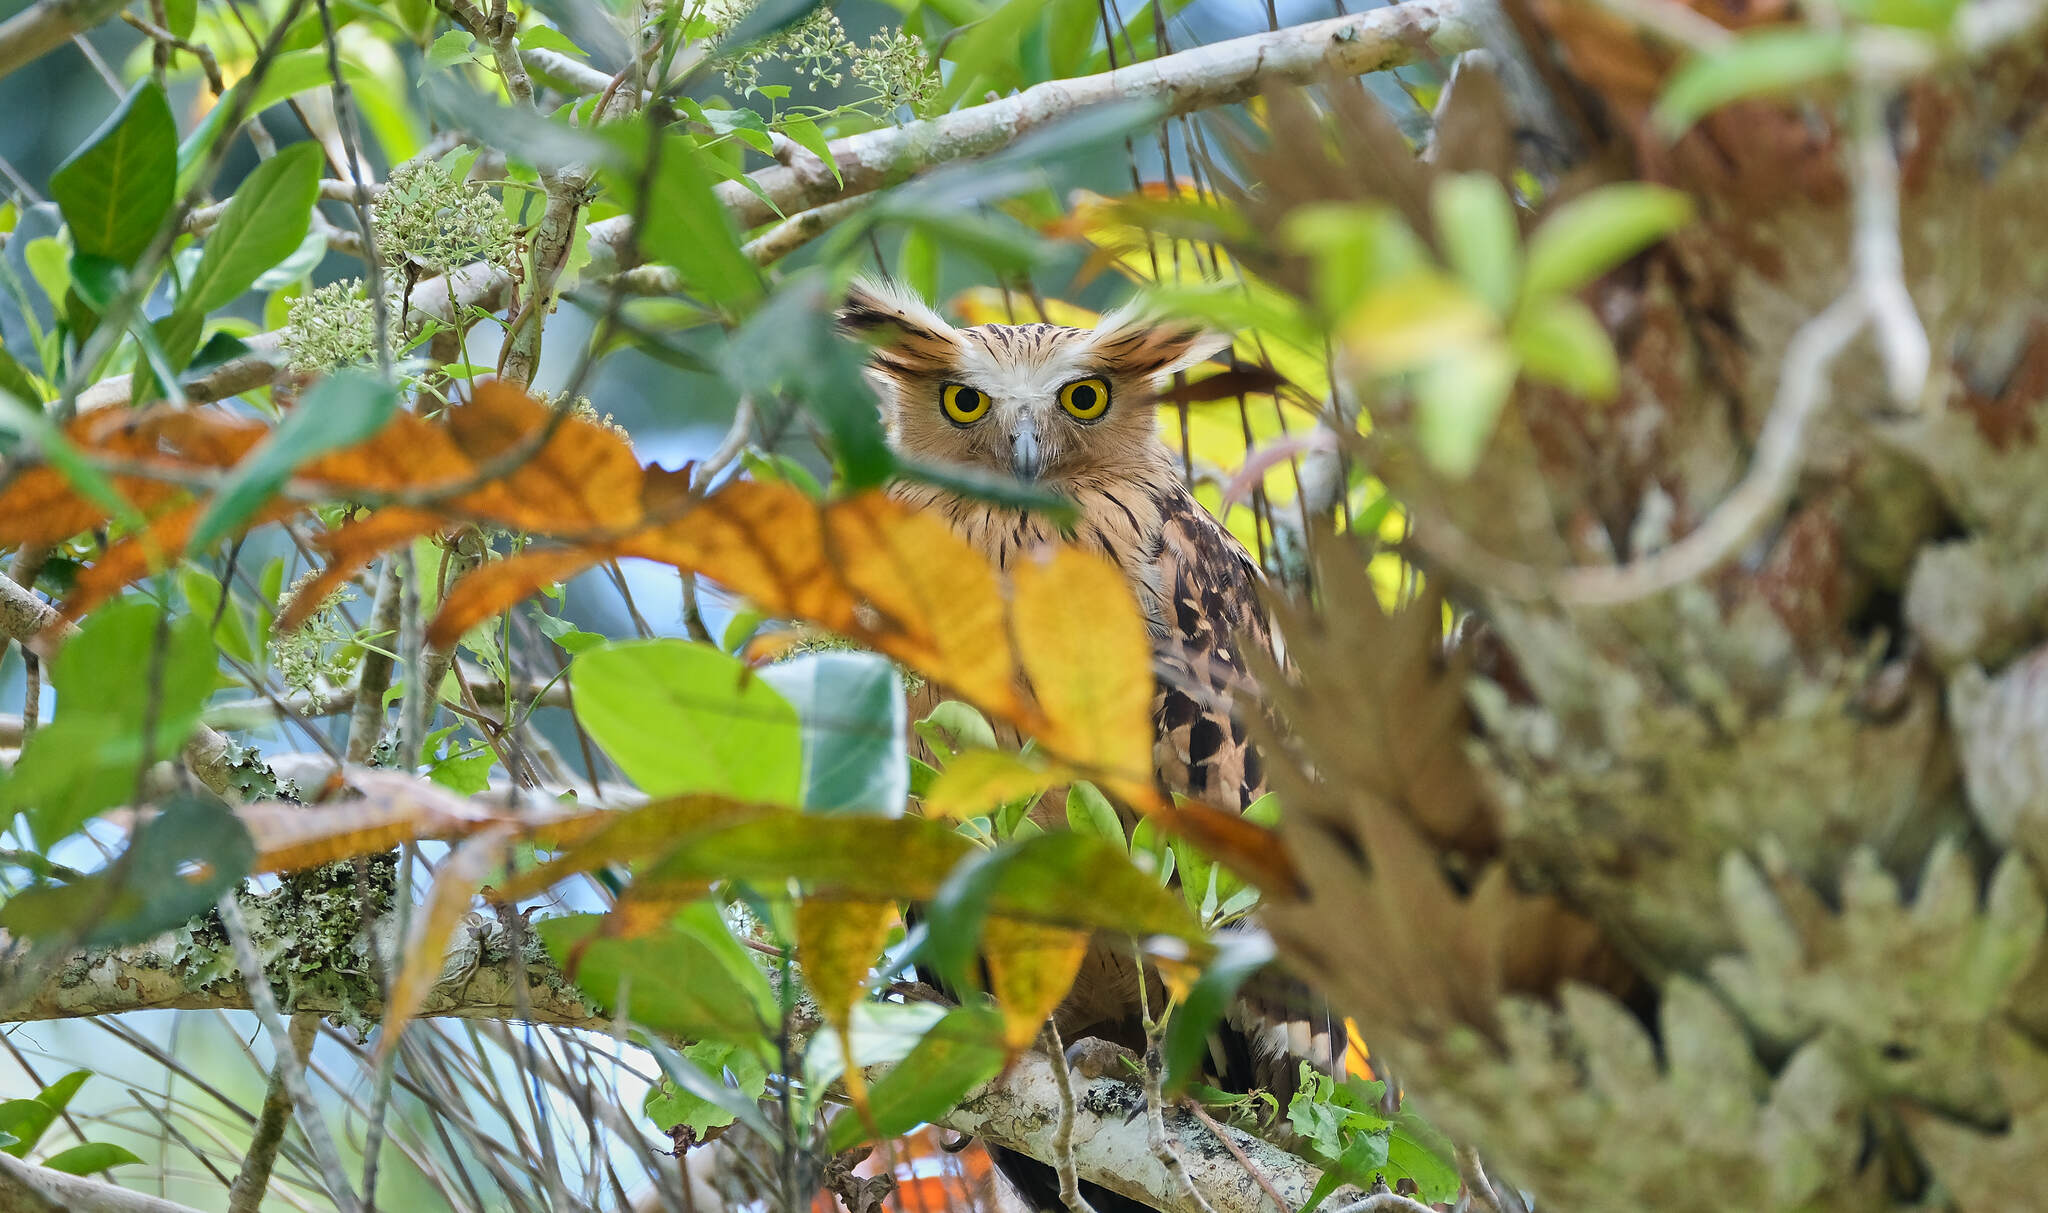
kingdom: Animalia
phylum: Chordata
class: Aves
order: Strigiformes
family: Strigidae
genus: Ketupa
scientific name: Ketupa ketupu
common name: Buffy fish-owl
